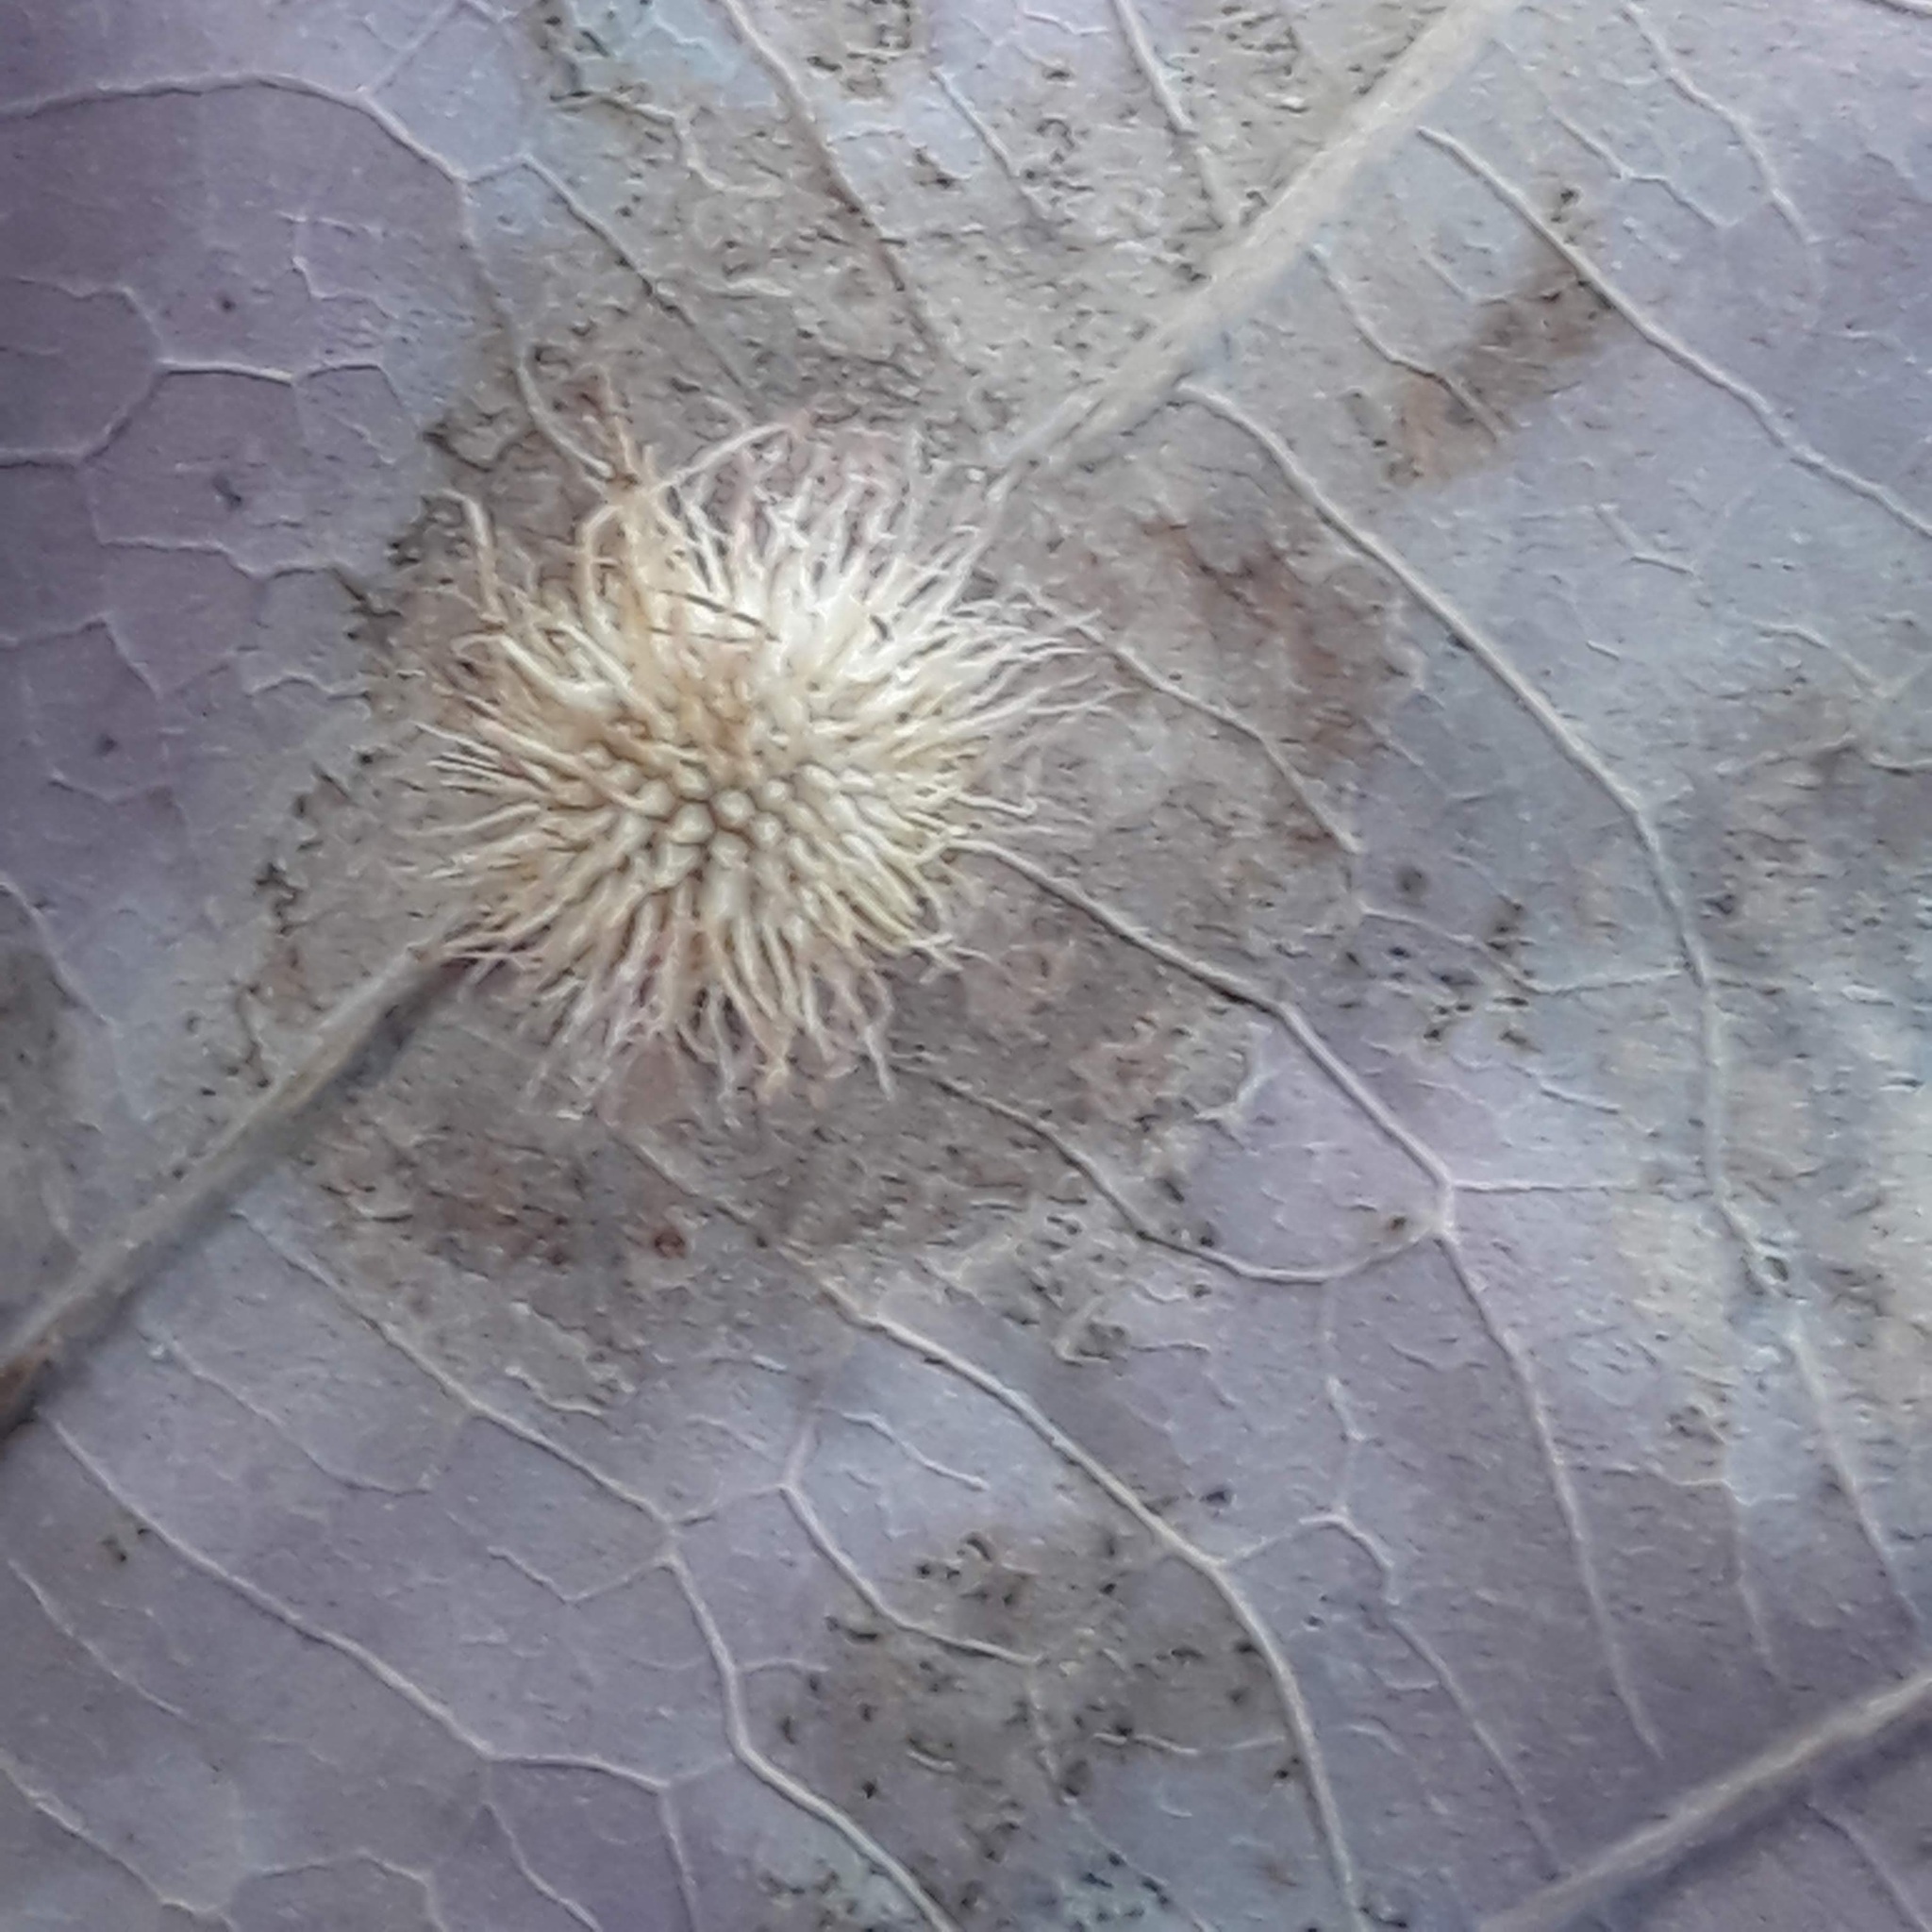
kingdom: Animalia
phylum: Arthropoda
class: Insecta
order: Hymenoptera
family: Cynipidae
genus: Acraspis
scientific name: Acraspis erinacei
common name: Hedgehog gall wasp
